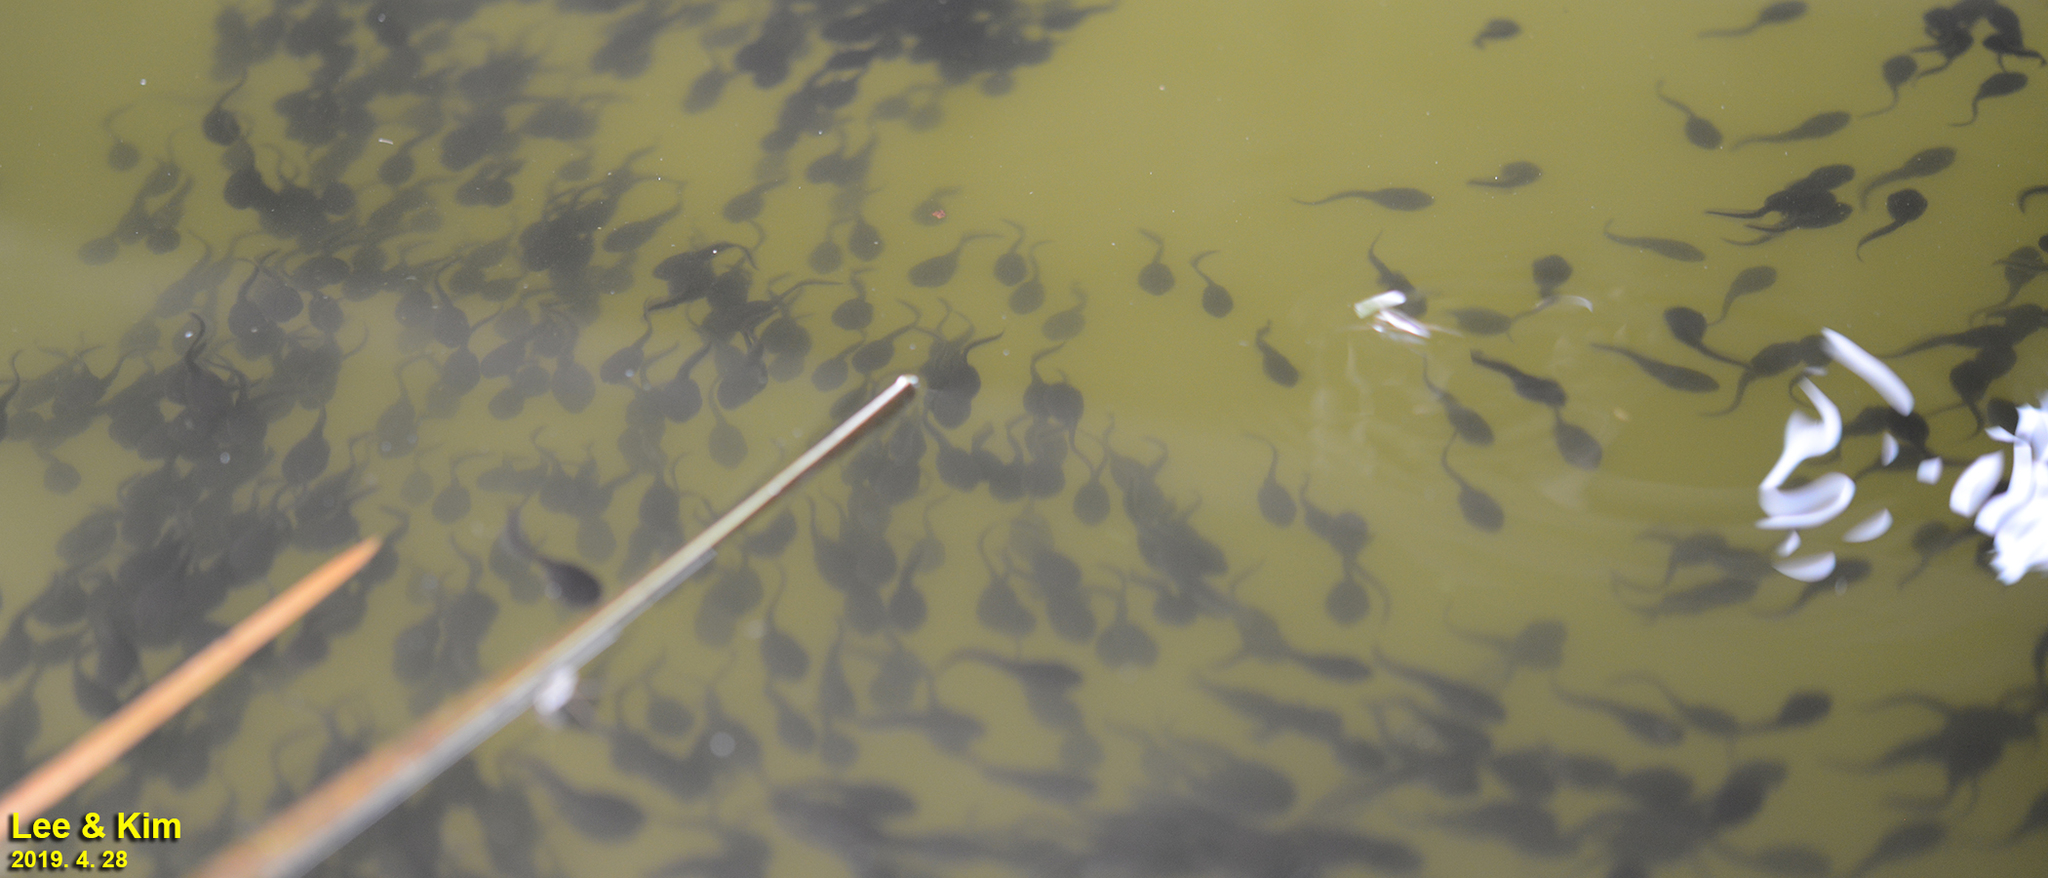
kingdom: Animalia
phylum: Chordata
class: Amphibia
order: Anura
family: Bufonidae
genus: Bufo
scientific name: Bufo gargarizans
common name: Asiatic toad
